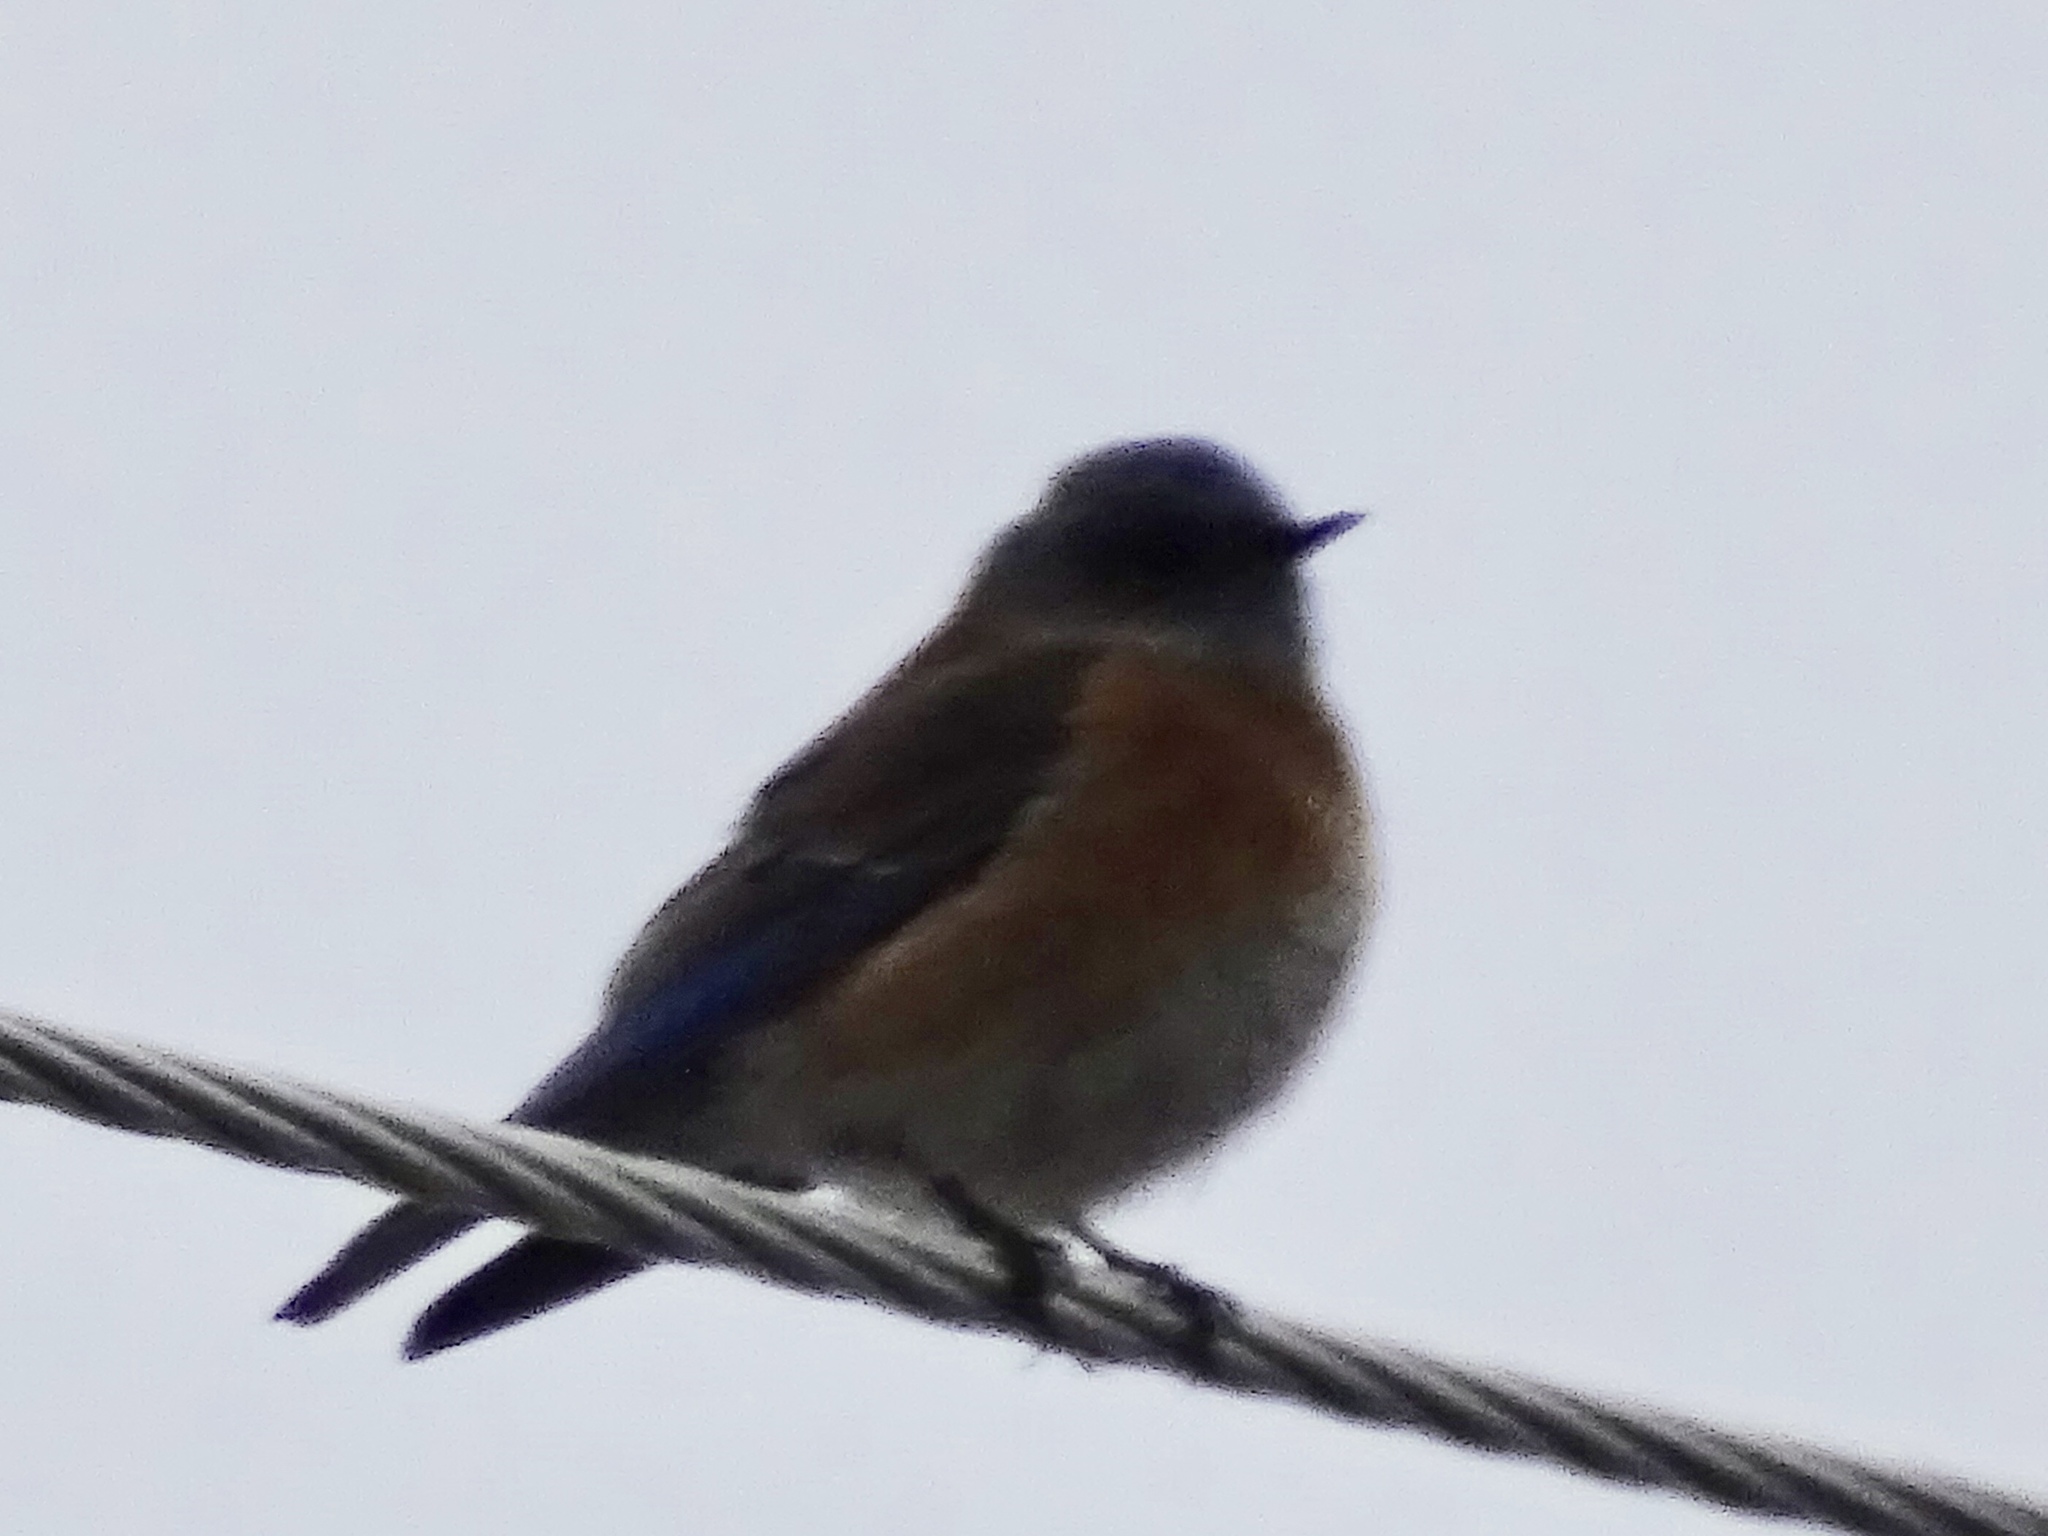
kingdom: Animalia
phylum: Chordata
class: Aves
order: Passeriformes
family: Turdidae
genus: Sialia
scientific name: Sialia mexicana
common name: Western bluebird
